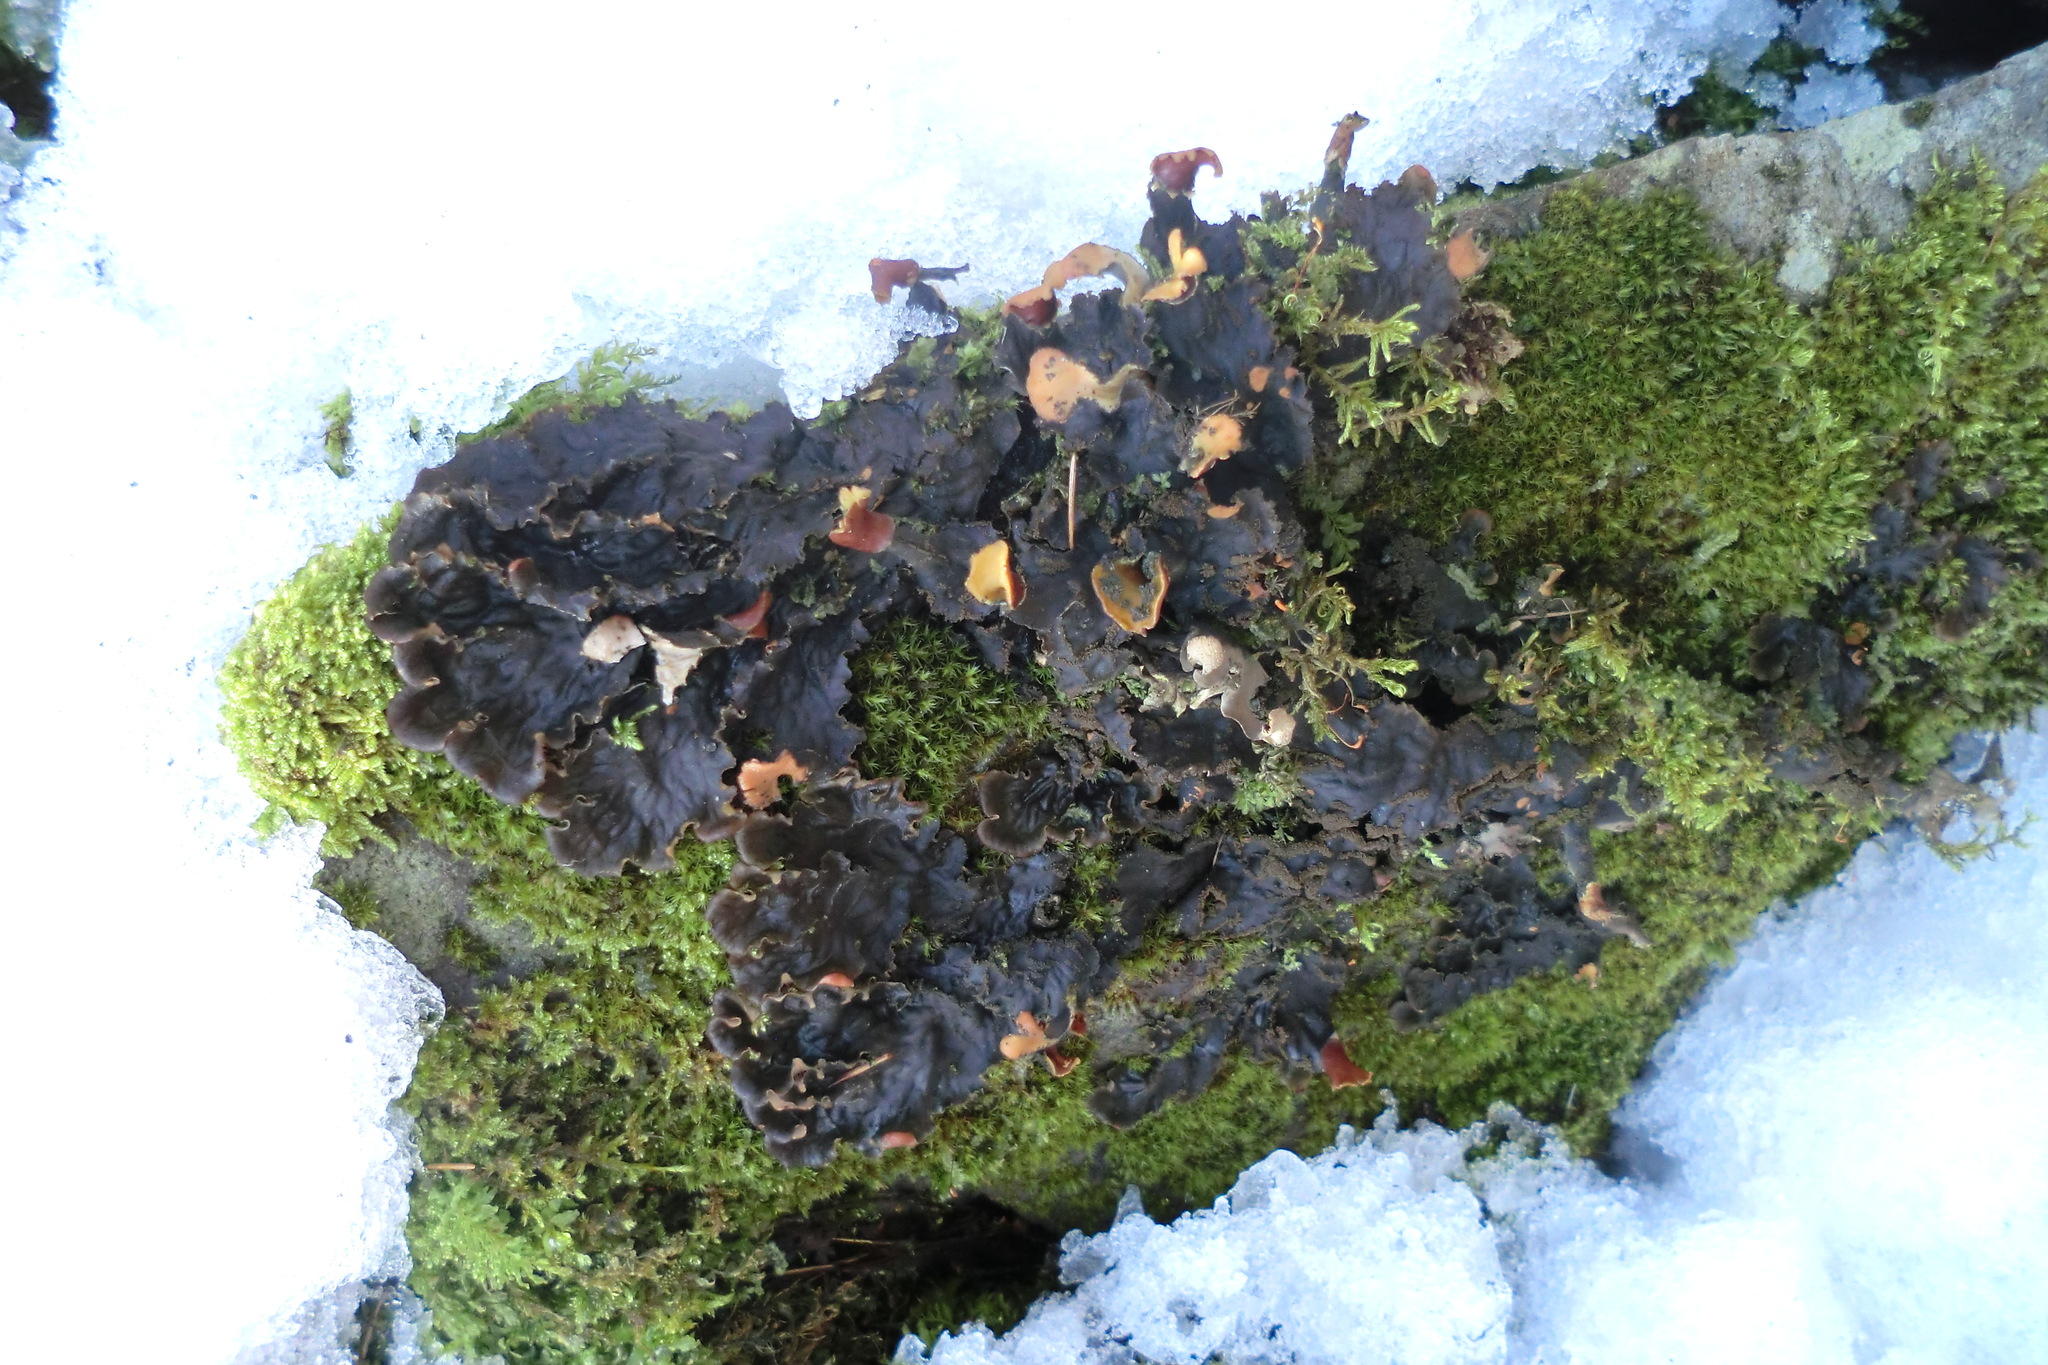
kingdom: Fungi
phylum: Ascomycota
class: Lecanoromycetes
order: Peltigerales
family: Peltigeraceae
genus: Peltigera
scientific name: Peltigera praetextata
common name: Scaly dog-lichen
